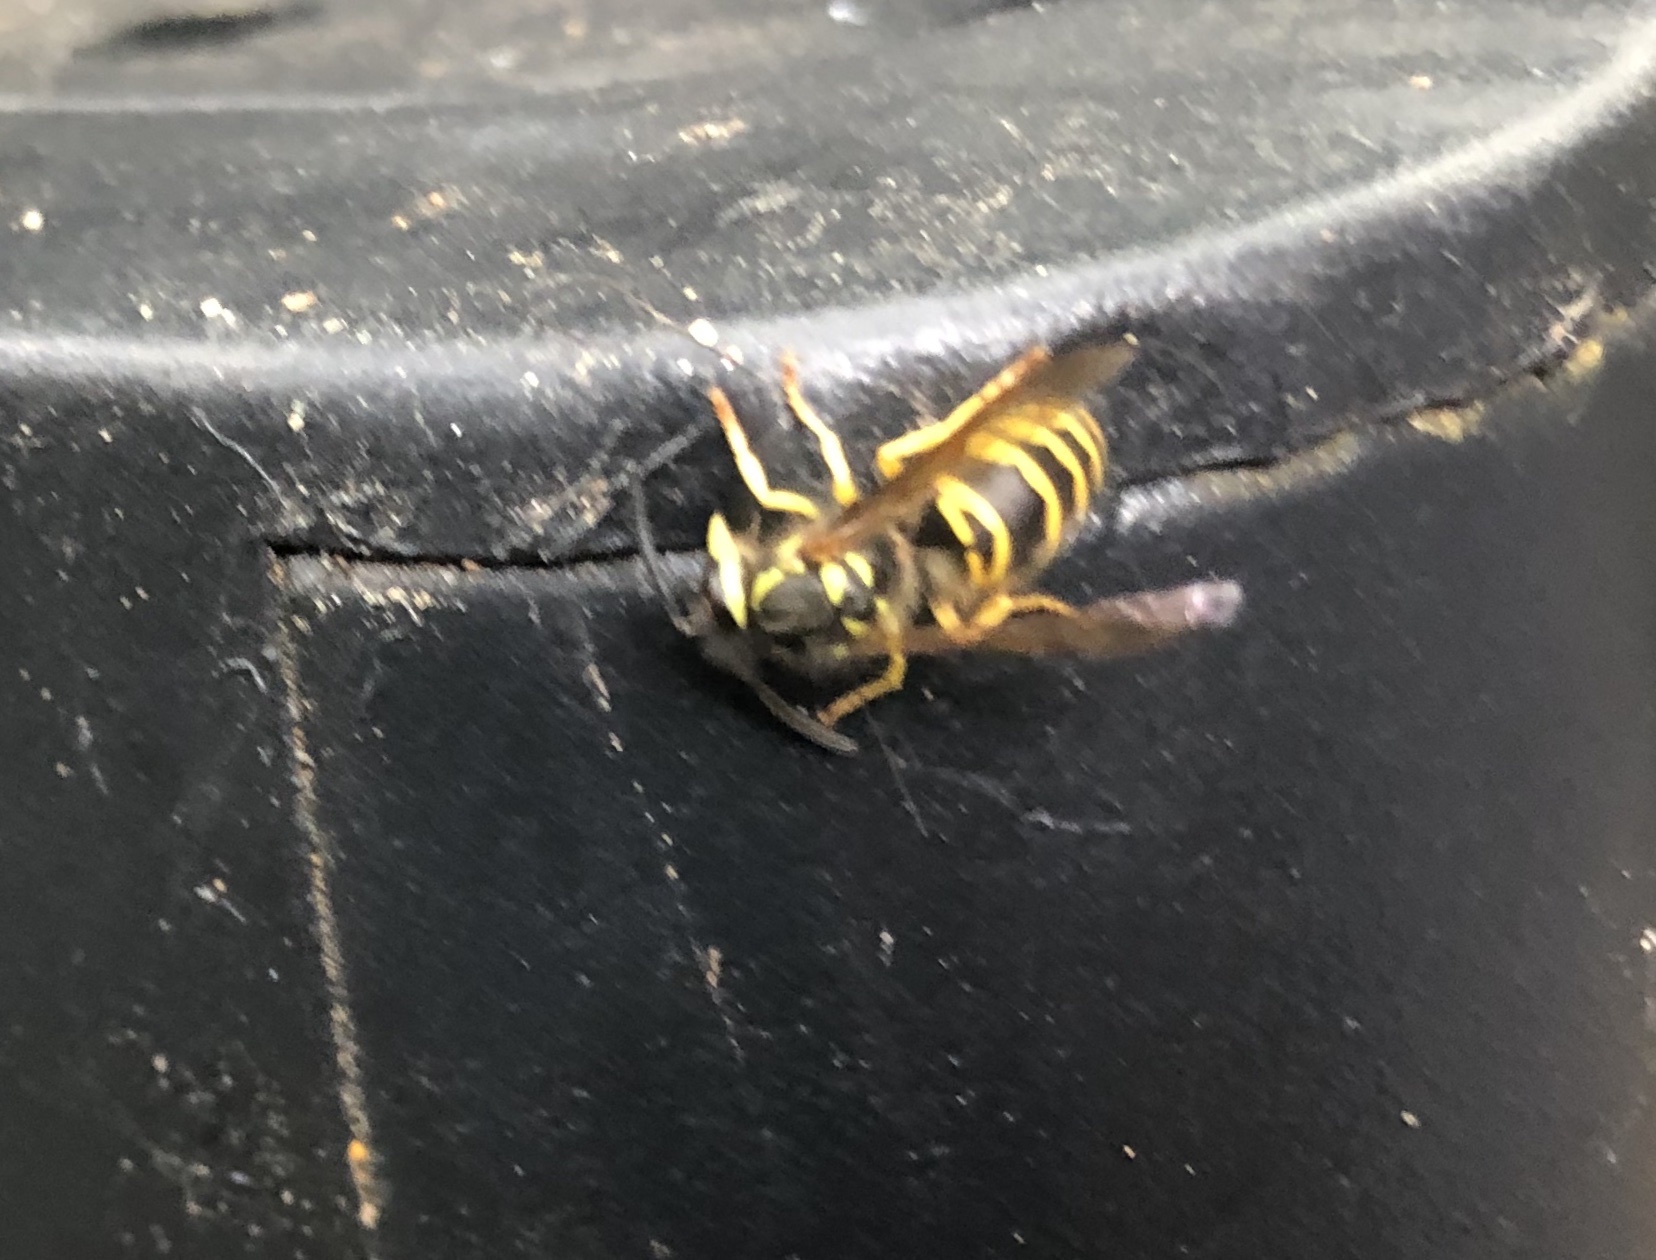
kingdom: Animalia
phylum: Arthropoda
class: Insecta
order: Hymenoptera
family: Vespidae
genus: Vespula
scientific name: Vespula maculifrons
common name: Eastern yellowjacket
